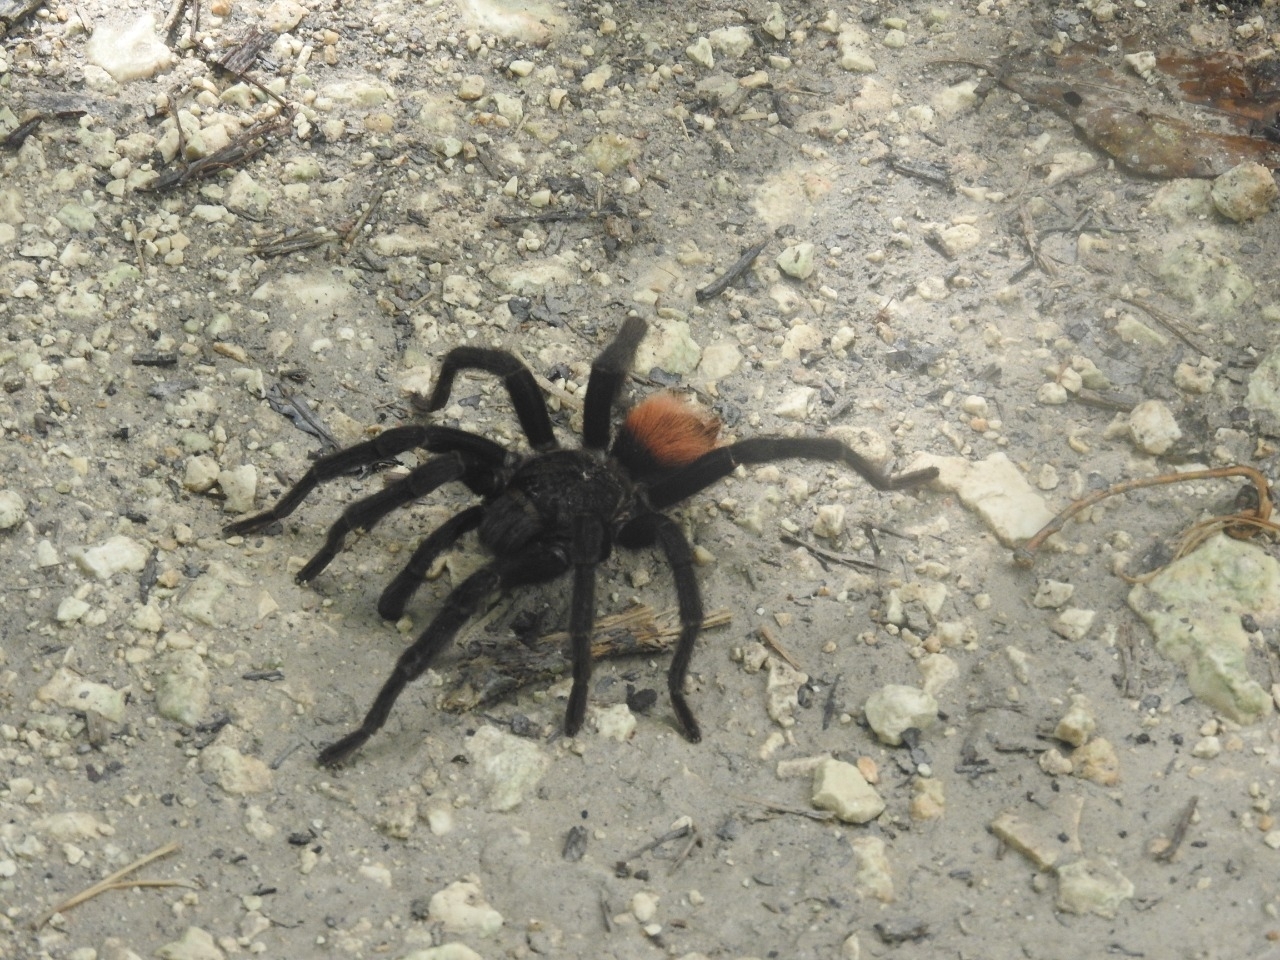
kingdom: Animalia
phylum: Arthropoda
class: Arachnida
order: Araneae
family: Theraphosidae
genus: Tliltocatl
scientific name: Tliltocatl epicureanus
